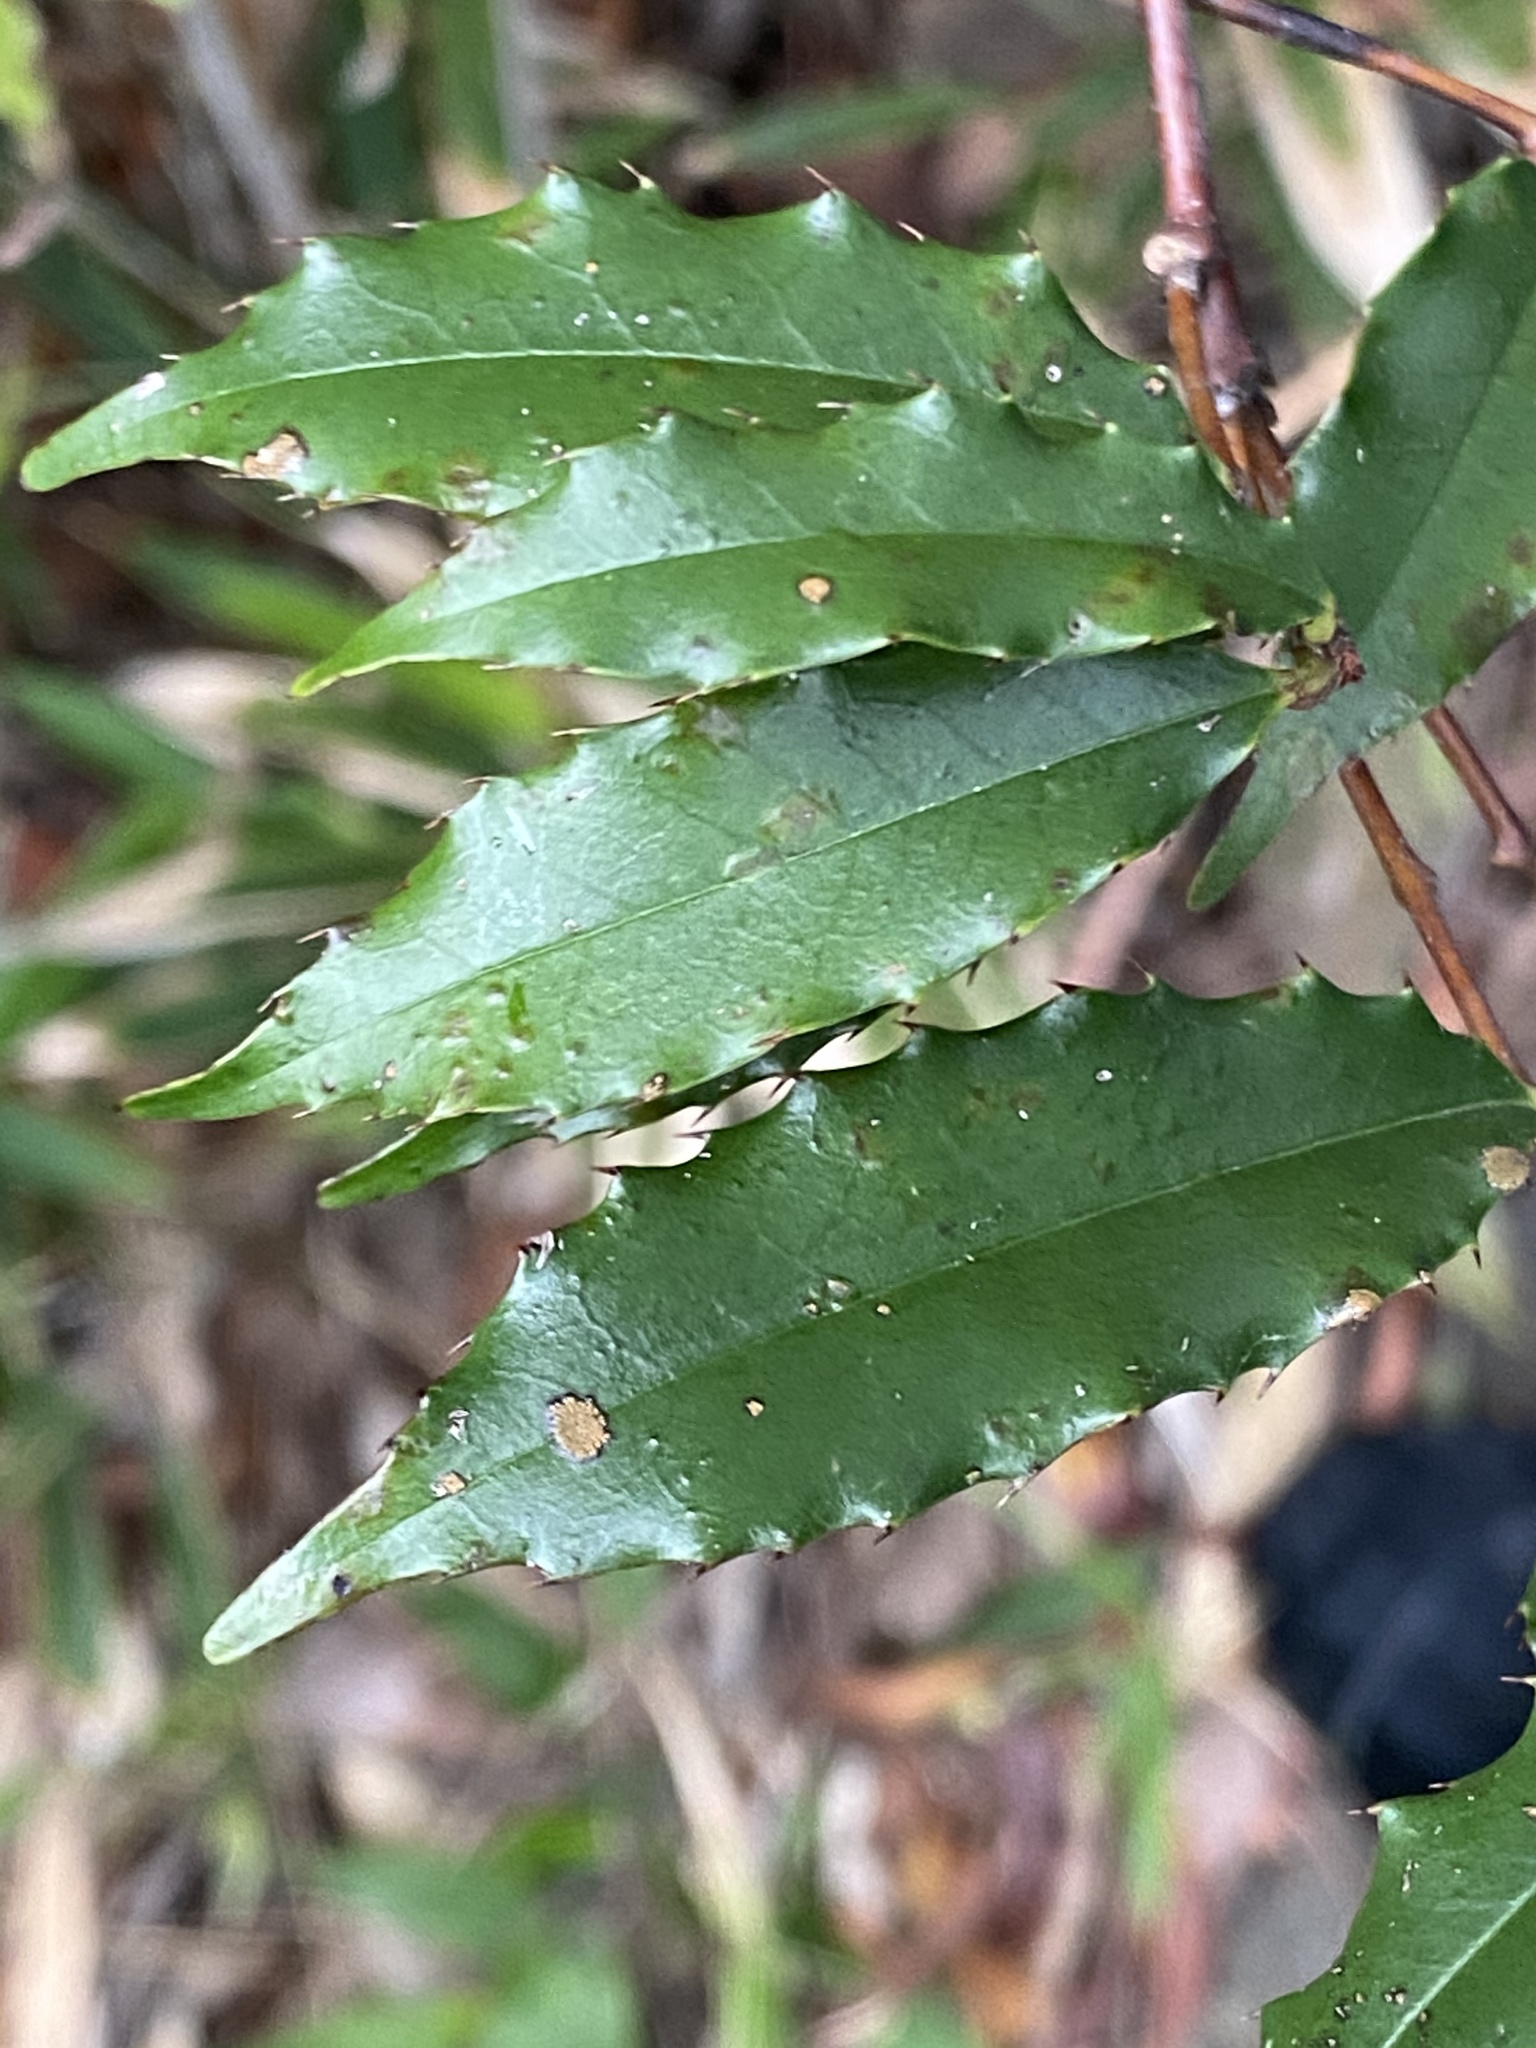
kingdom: Plantae
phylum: Tracheophyta
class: Magnoliopsida
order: Rosales
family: Rosaceae
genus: Prunus
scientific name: Prunus spinulosa
